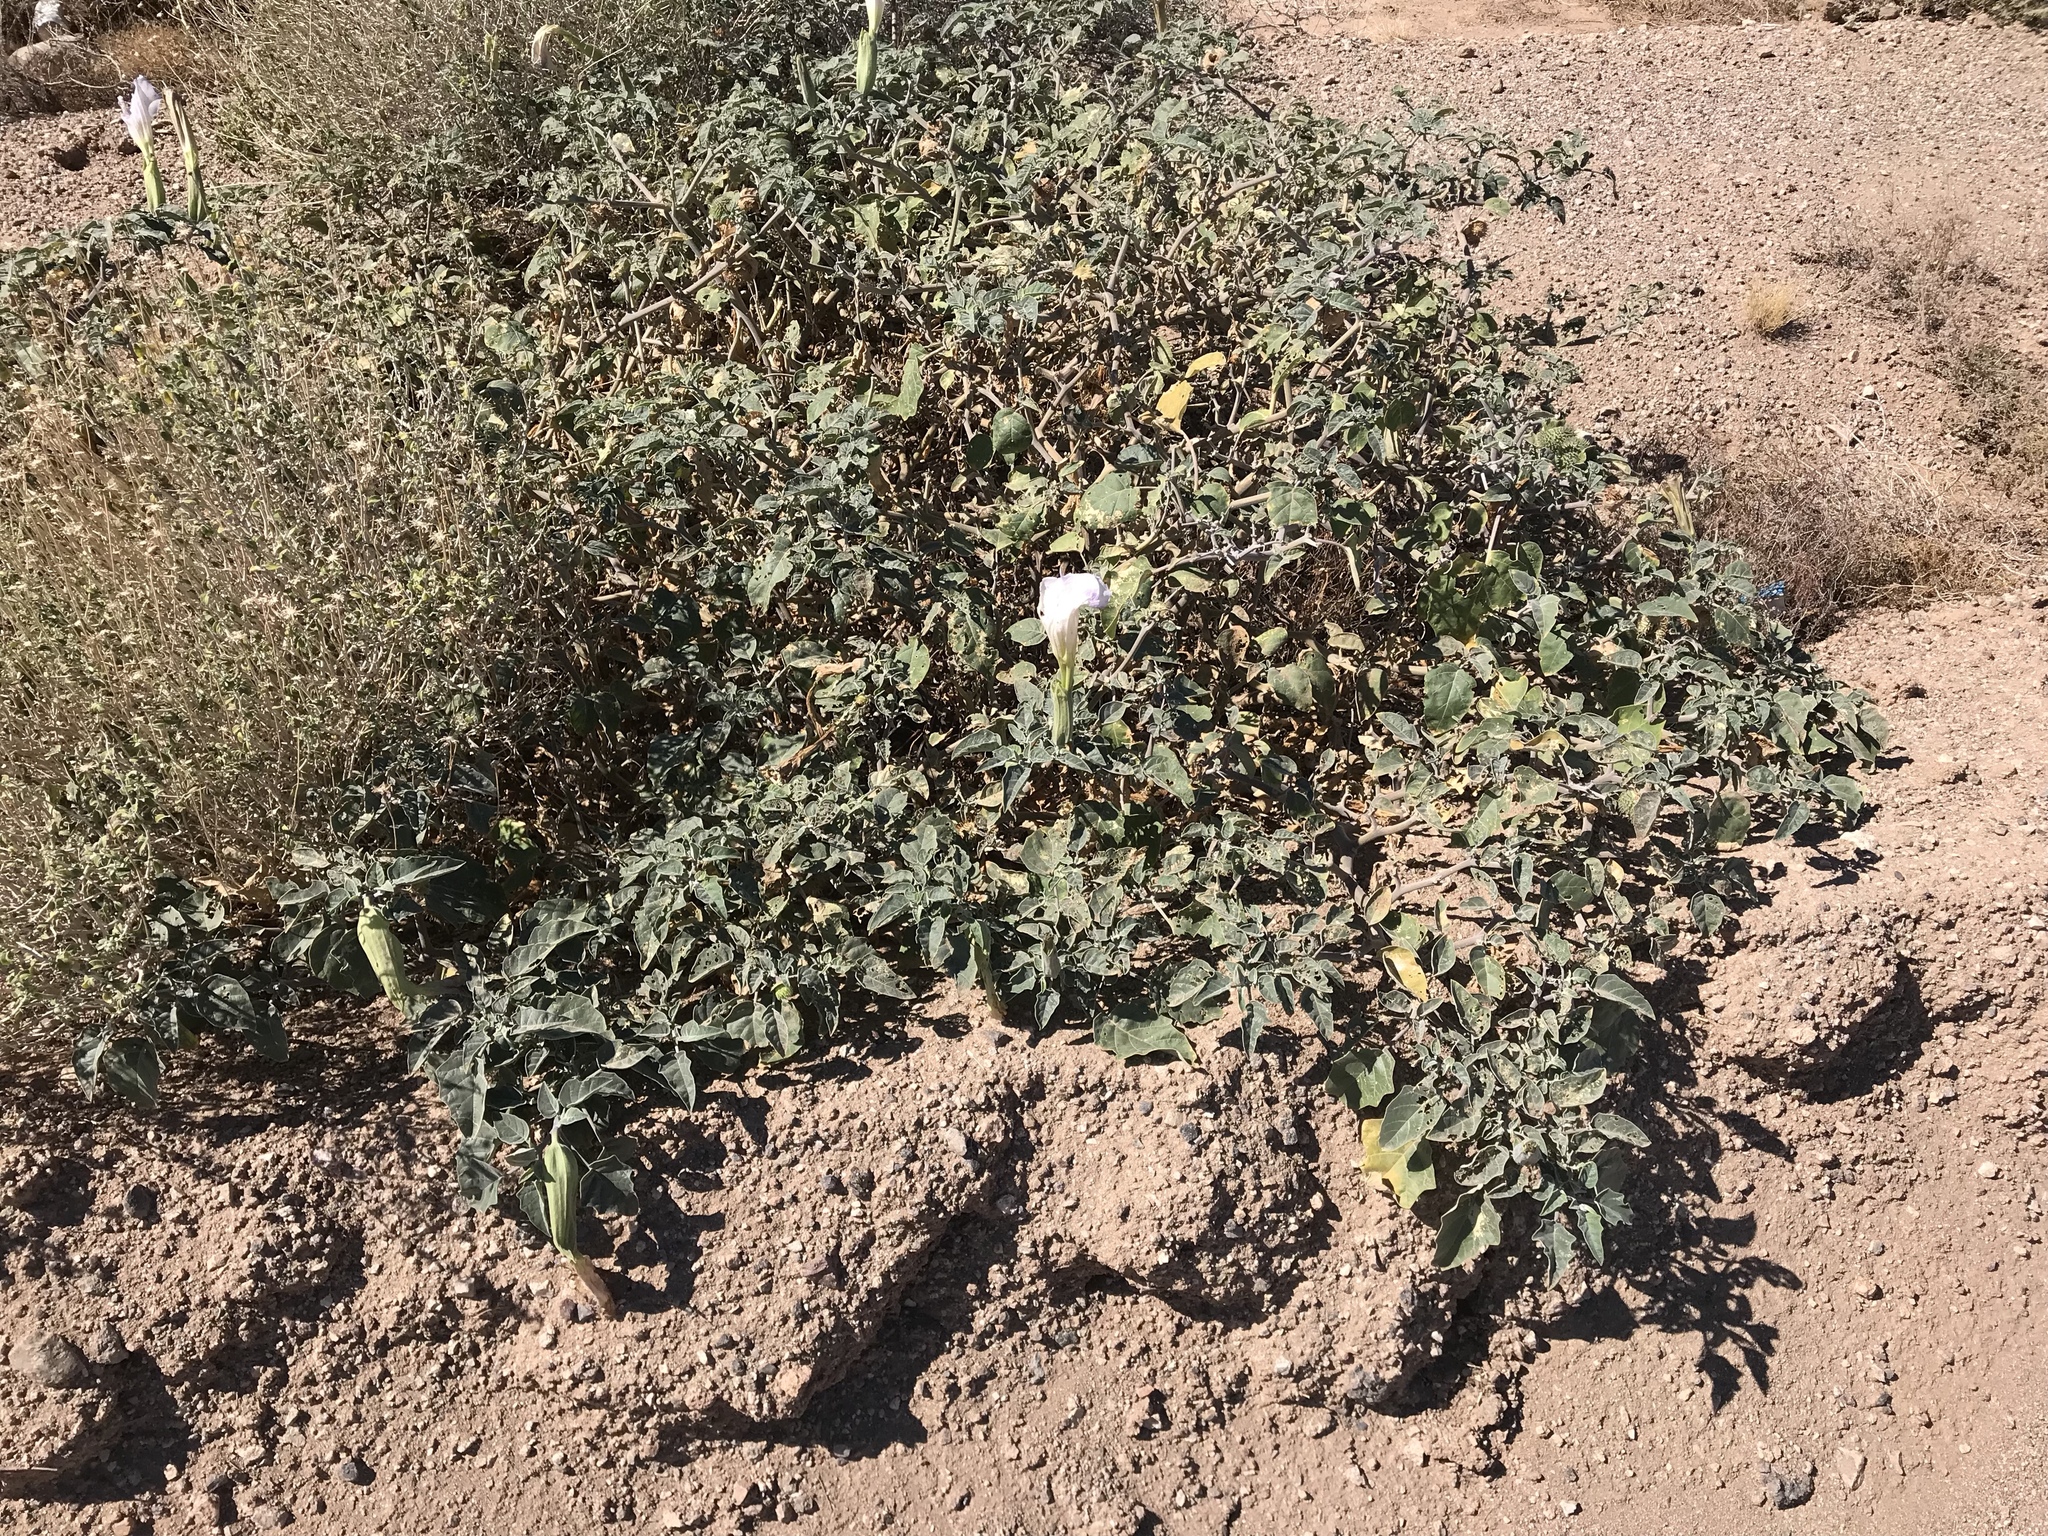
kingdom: Plantae
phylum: Tracheophyta
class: Magnoliopsida
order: Solanales
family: Solanaceae
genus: Datura
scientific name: Datura wrightii
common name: Sacred thorn-apple
